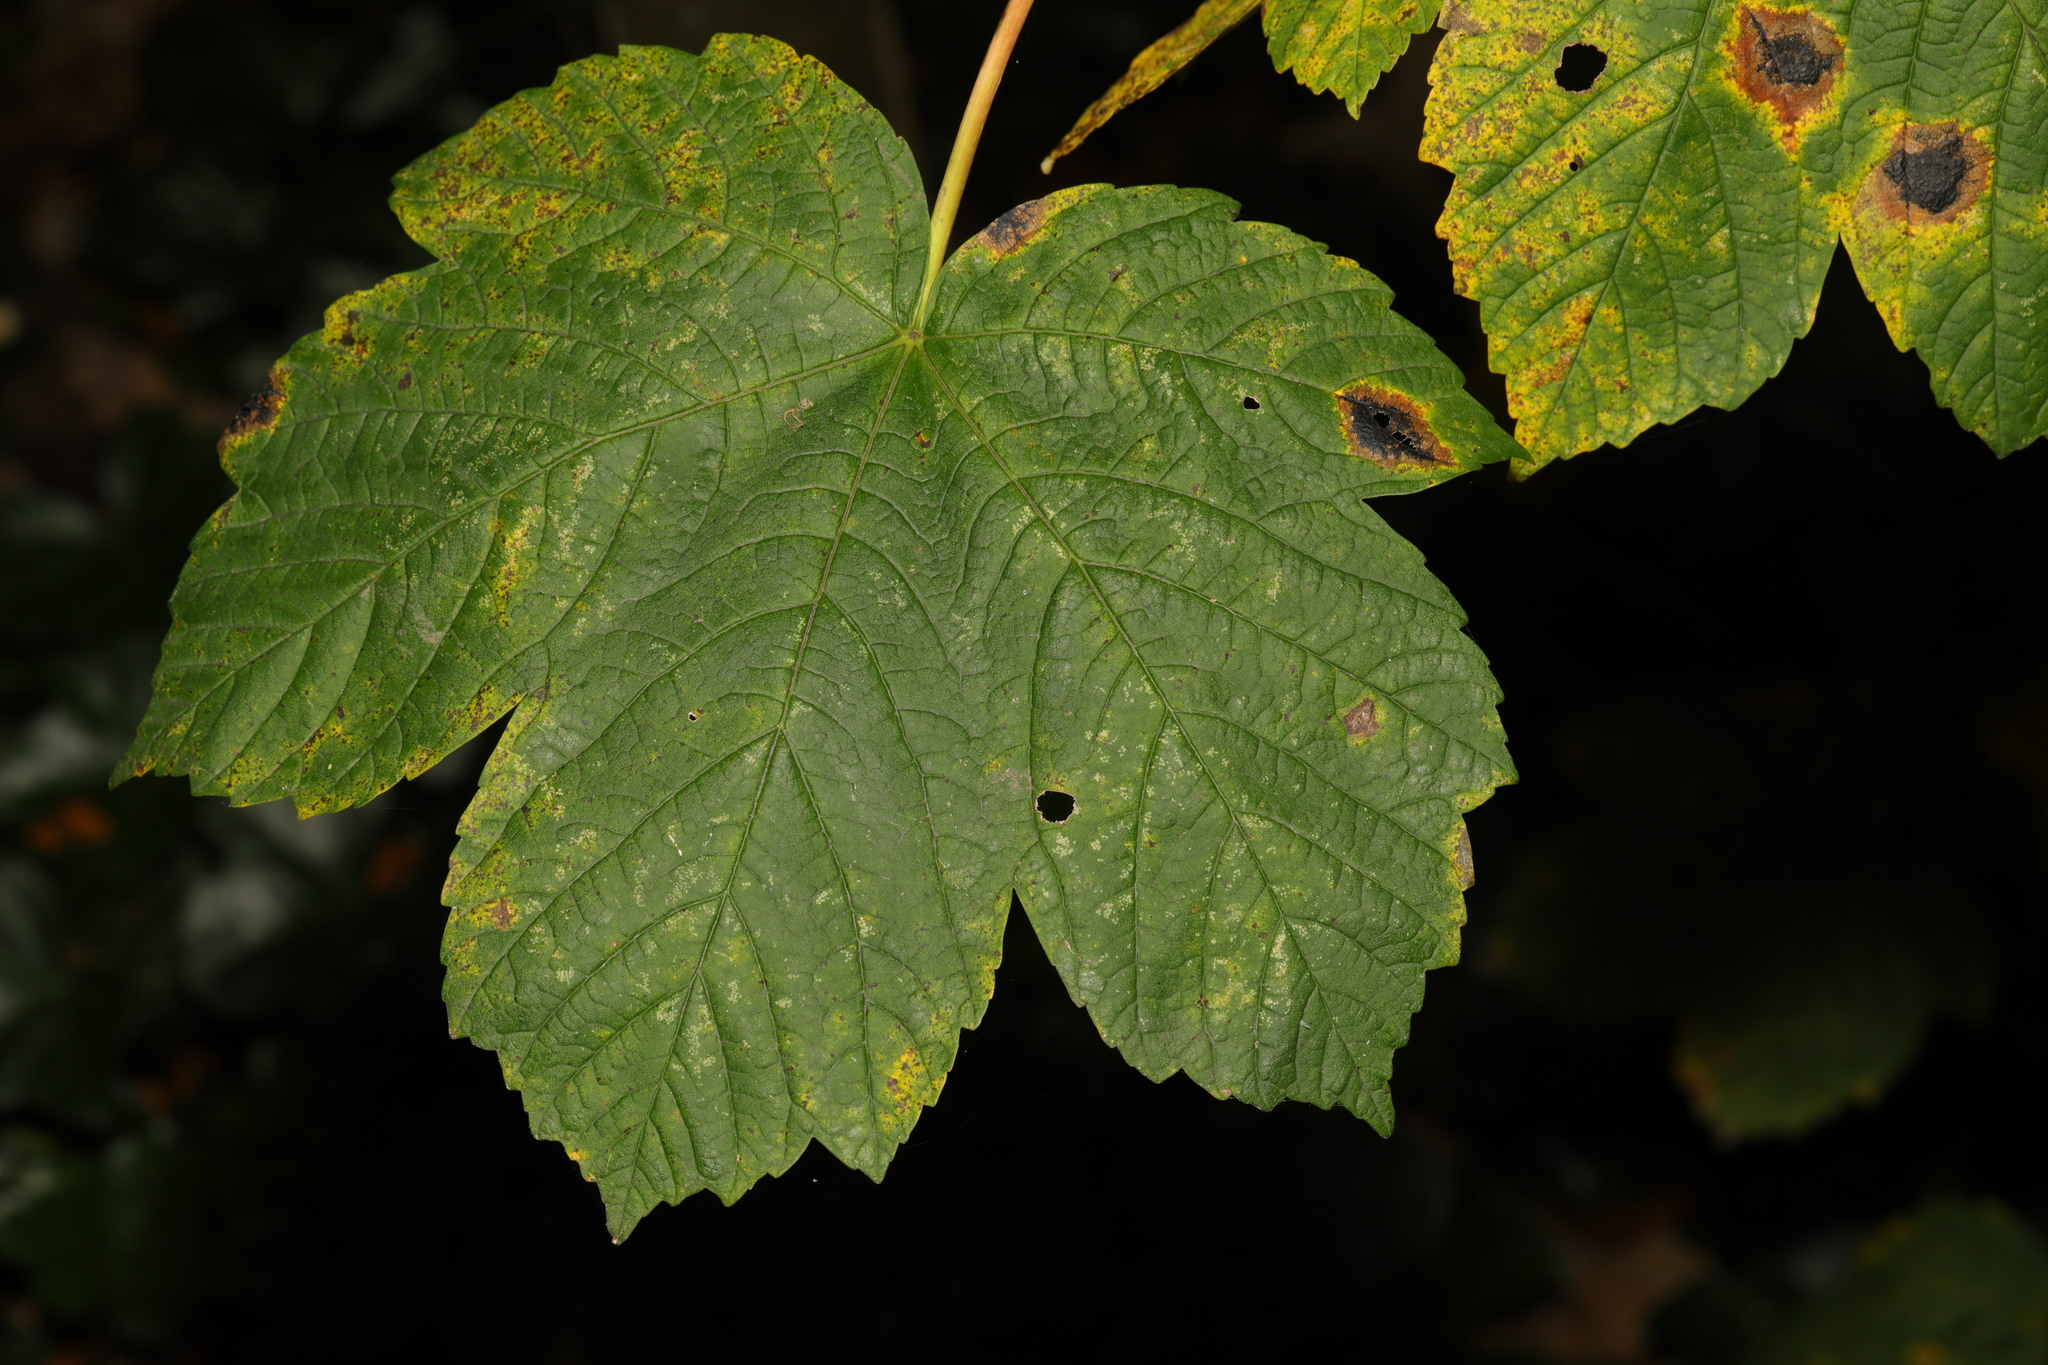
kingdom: Plantae
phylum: Tracheophyta
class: Magnoliopsida
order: Sapindales
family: Sapindaceae
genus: Acer
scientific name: Acer pseudoplatanus
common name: Sycamore
